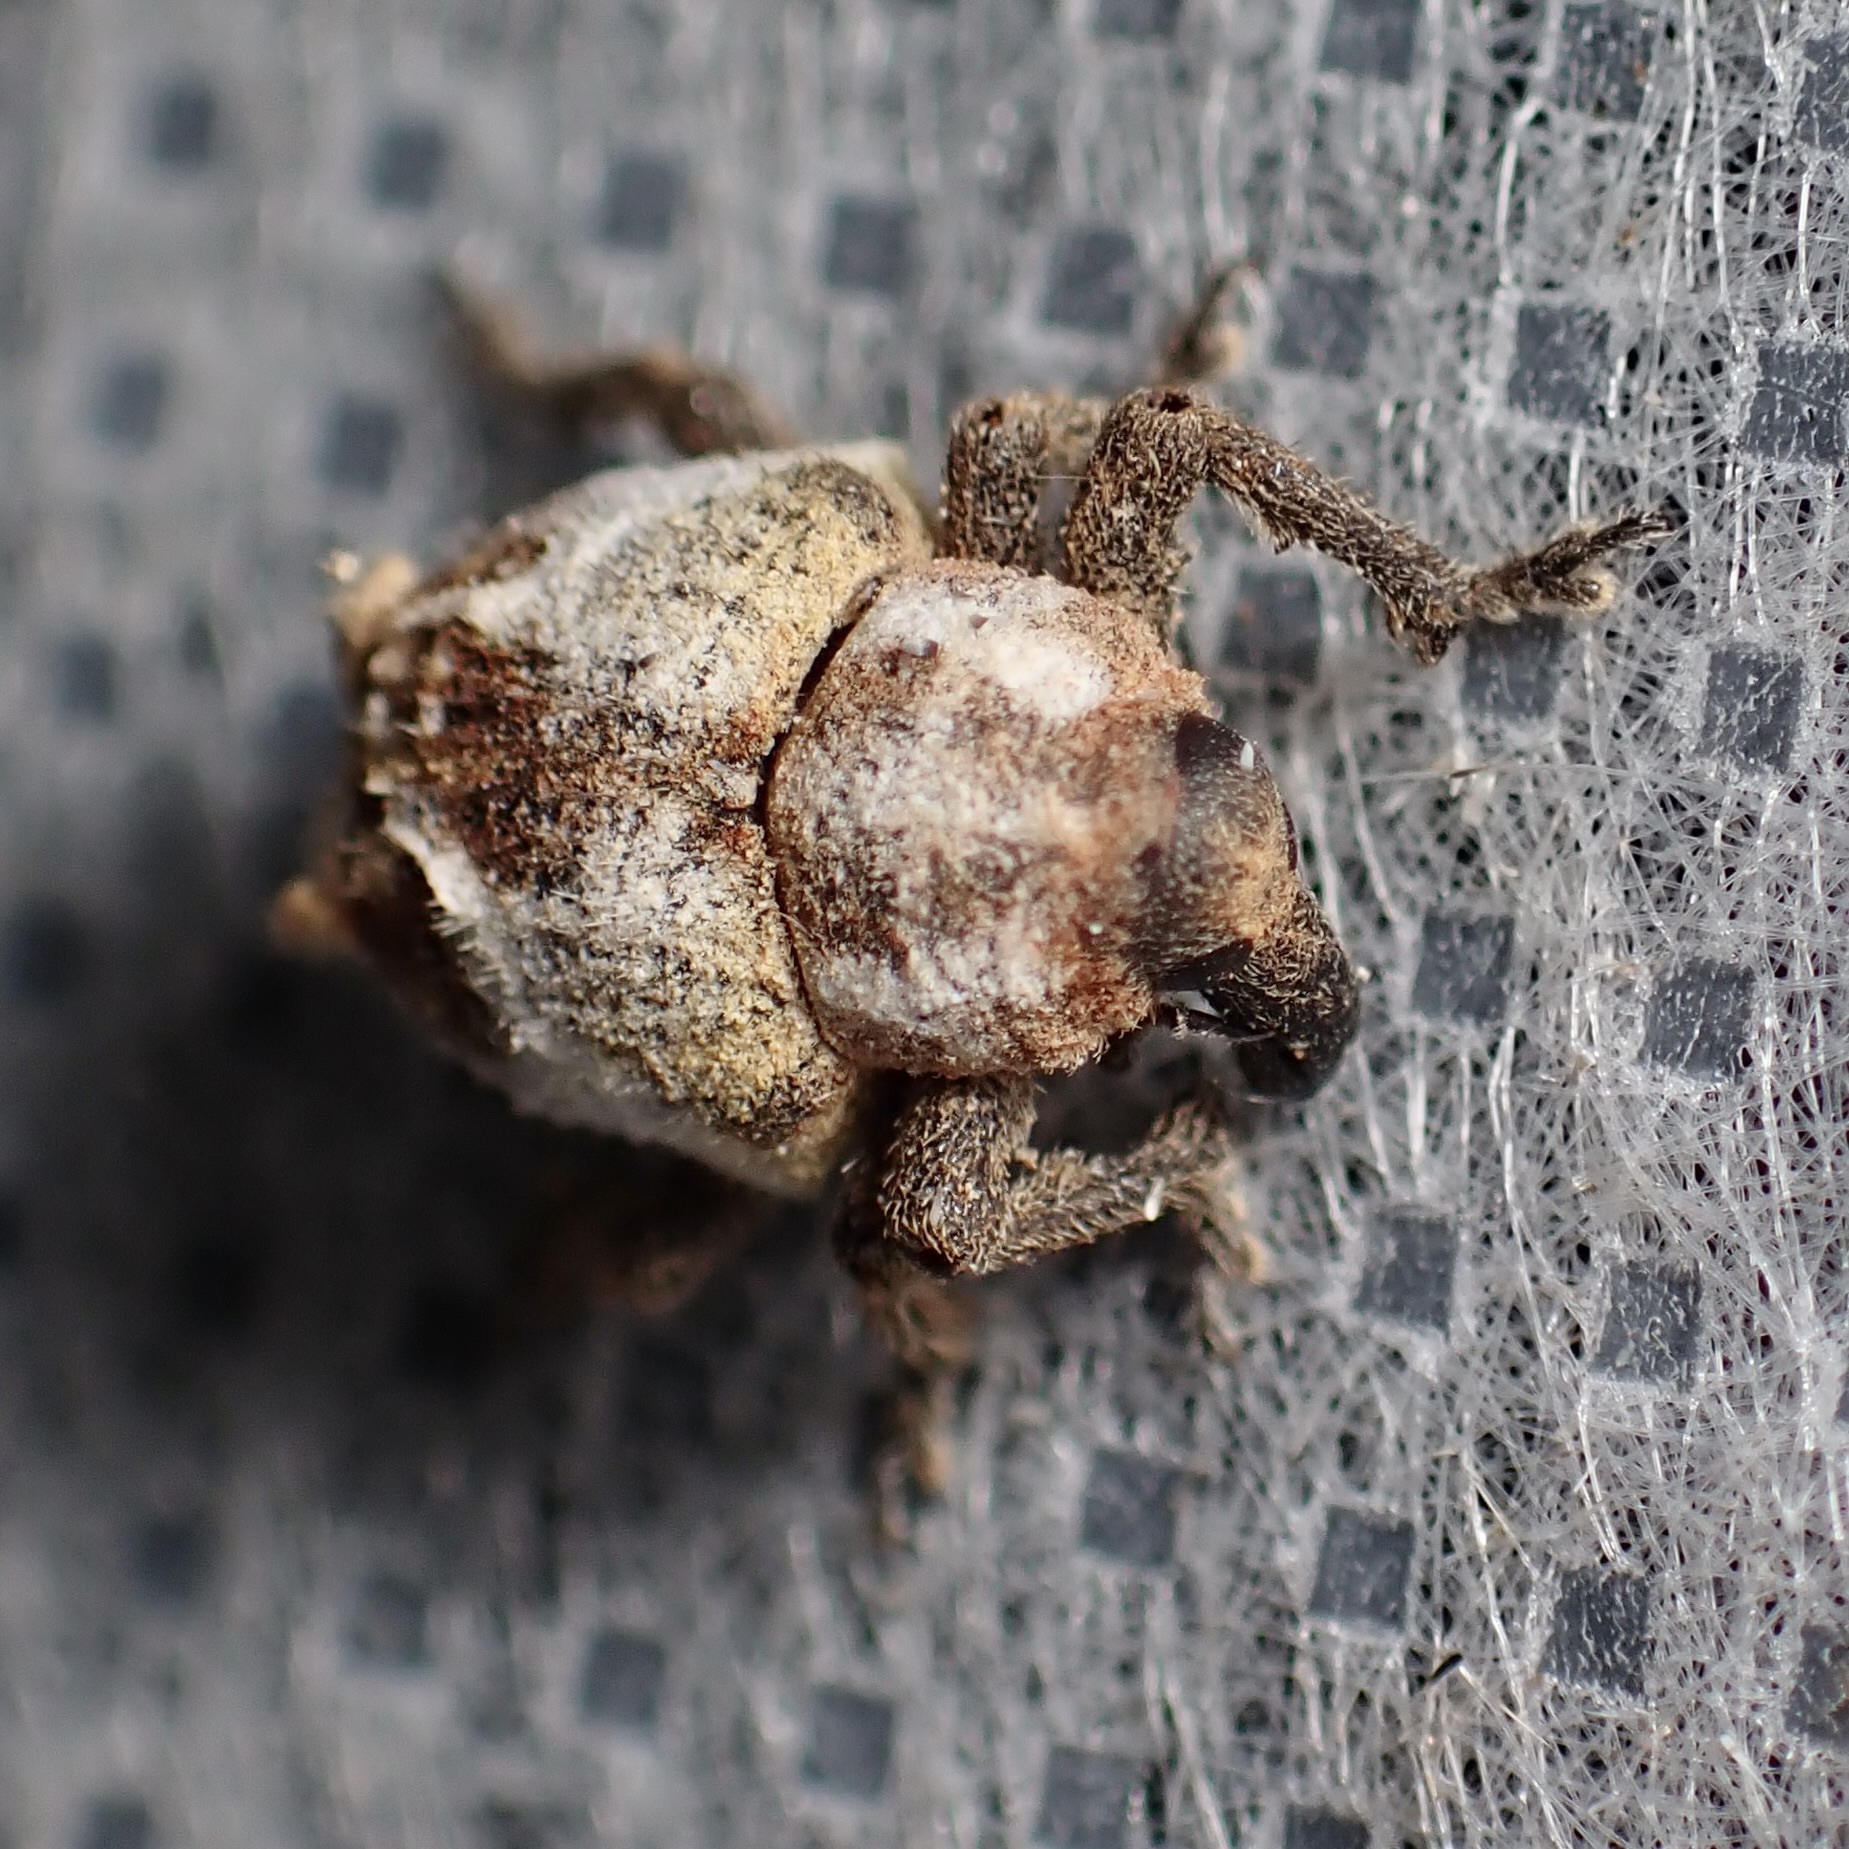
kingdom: Animalia
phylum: Arthropoda
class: Insecta
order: Coleoptera
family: Curculionidae
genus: Sternechus
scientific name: Sternechus paludatus
